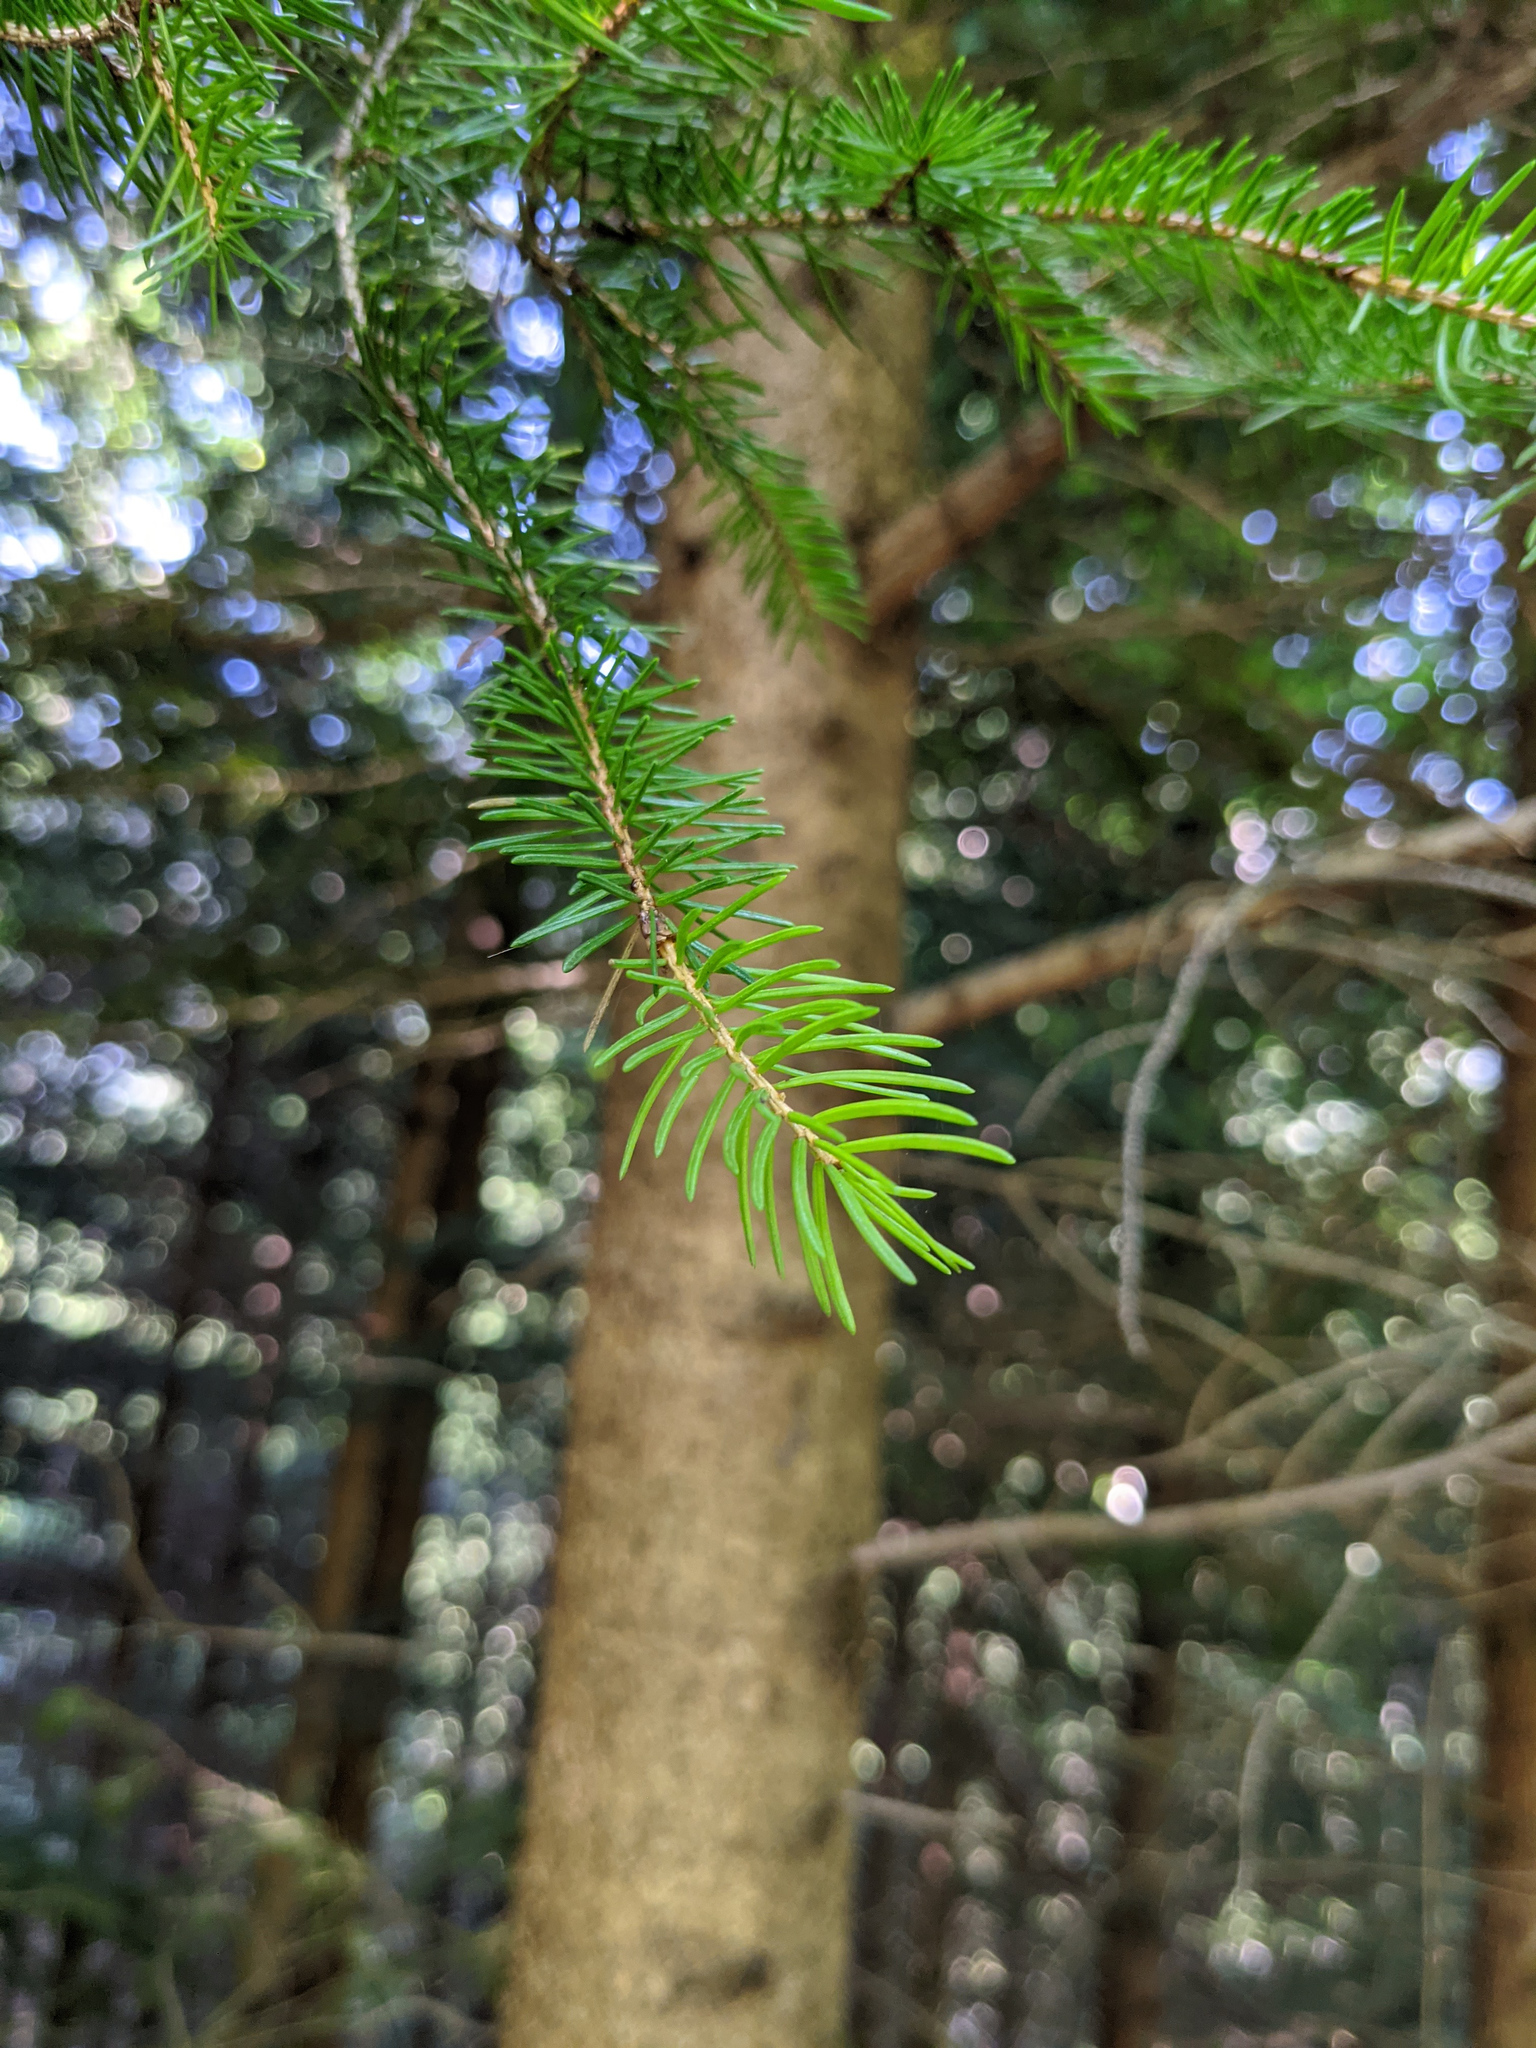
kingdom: Plantae
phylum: Tracheophyta
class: Pinopsida
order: Pinales
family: Pinaceae
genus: Picea
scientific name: Picea abies
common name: Norway spruce
